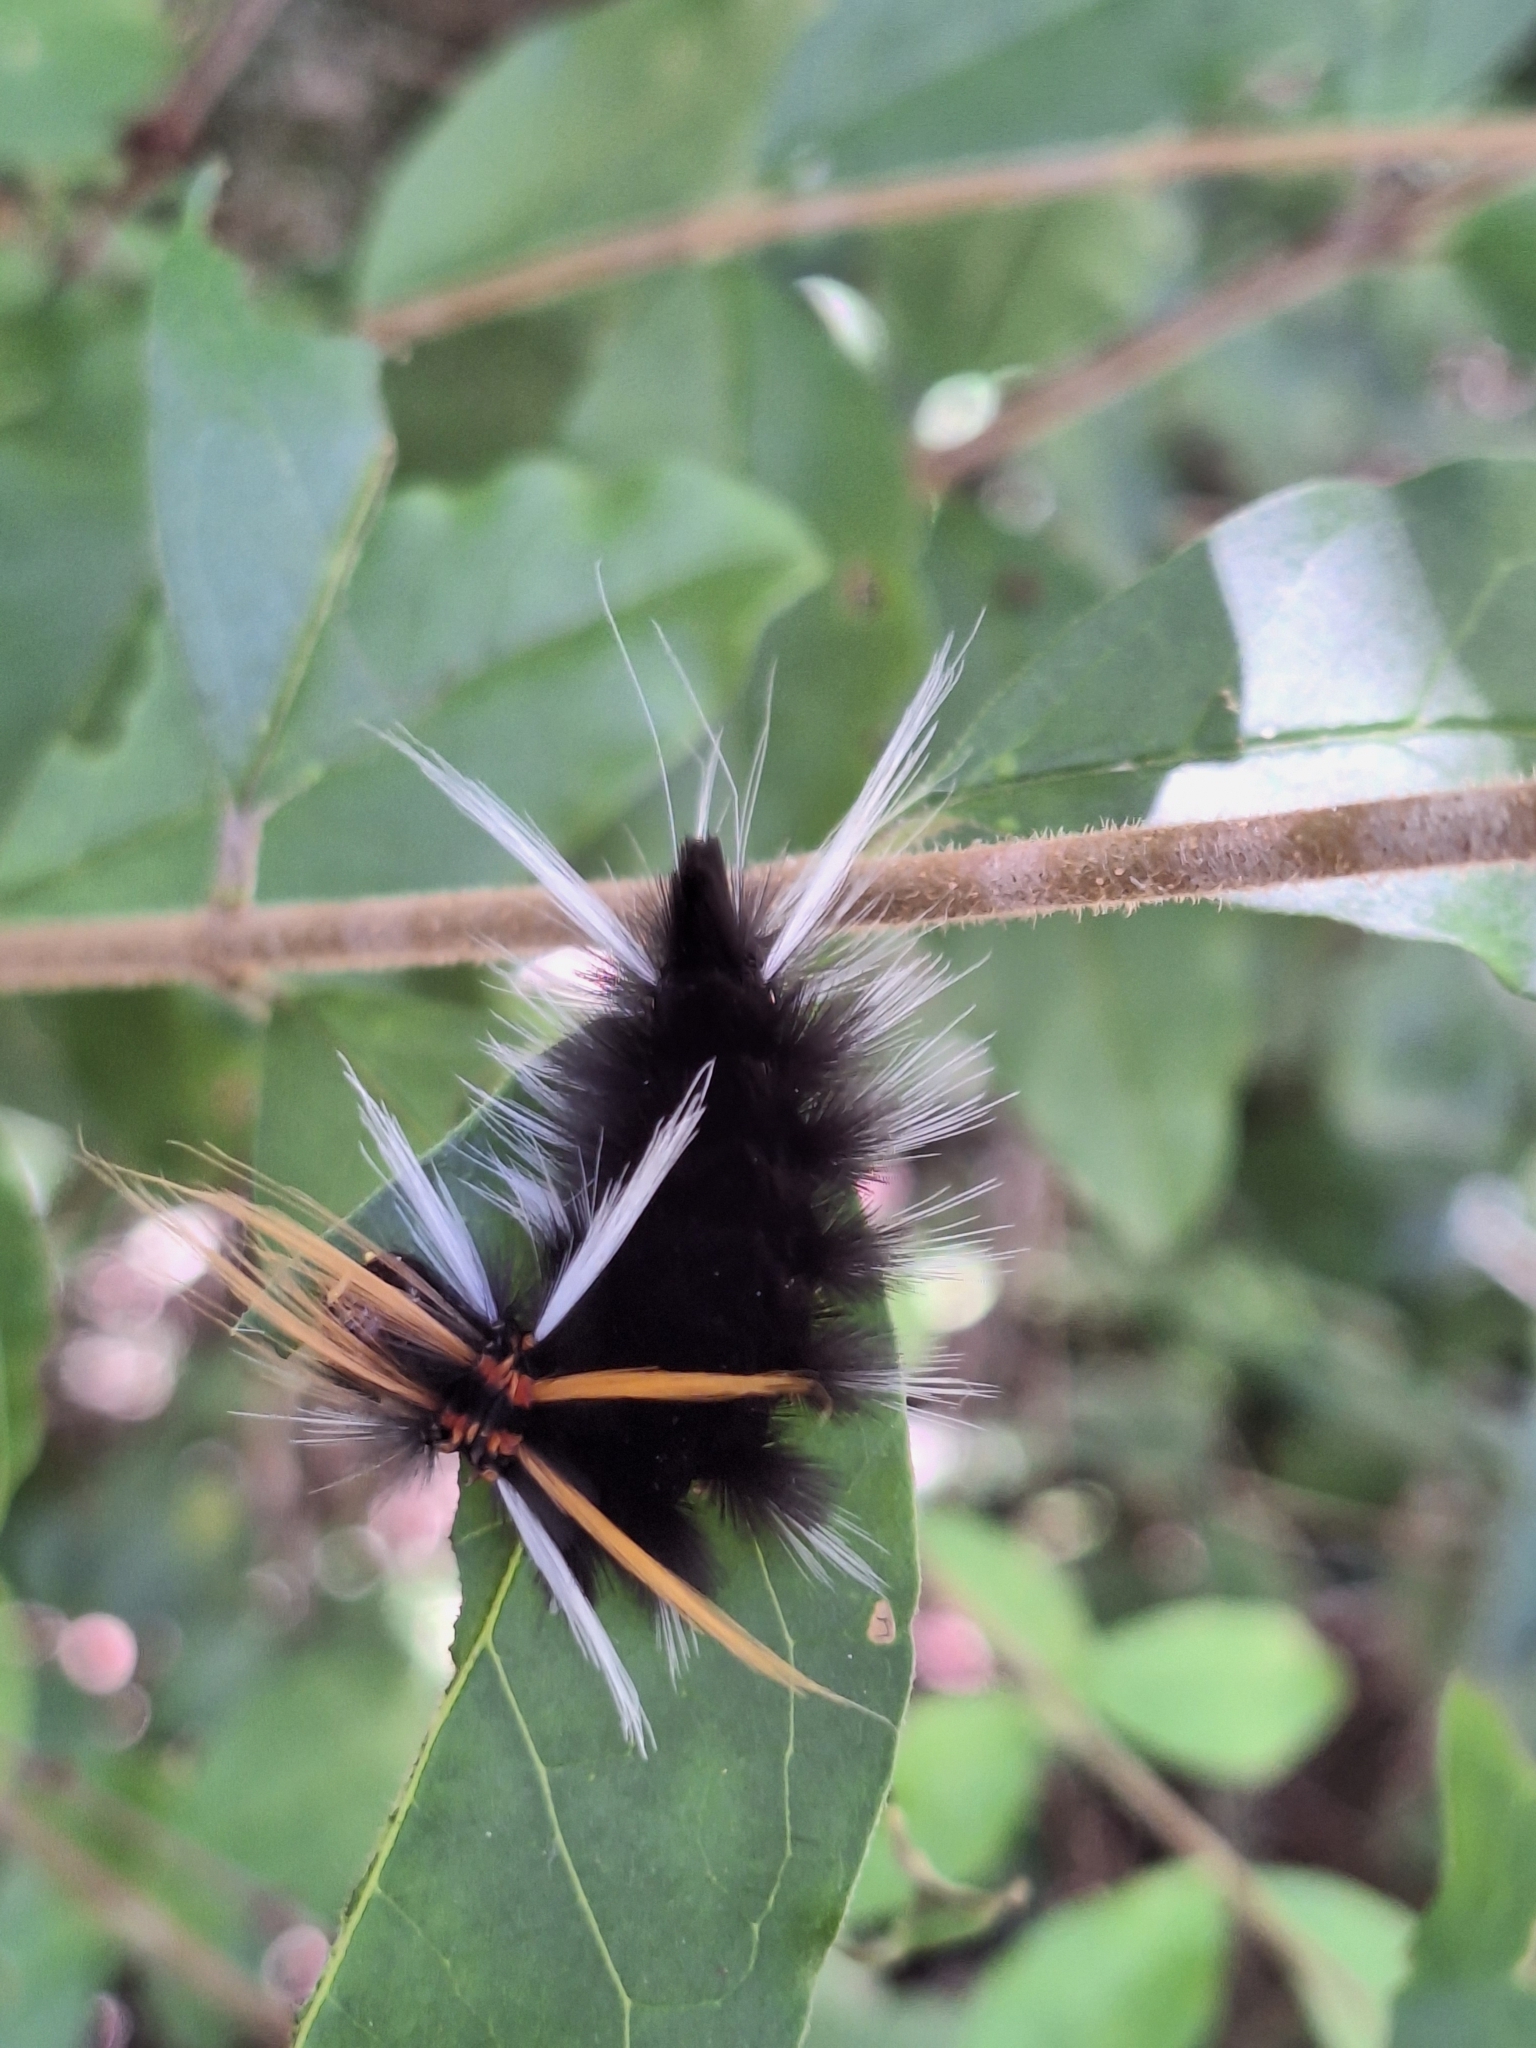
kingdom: Animalia
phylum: Arthropoda
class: Insecta
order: Lepidoptera
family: Erebidae
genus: Halysidota
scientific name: Halysidota ruscheweyhi
